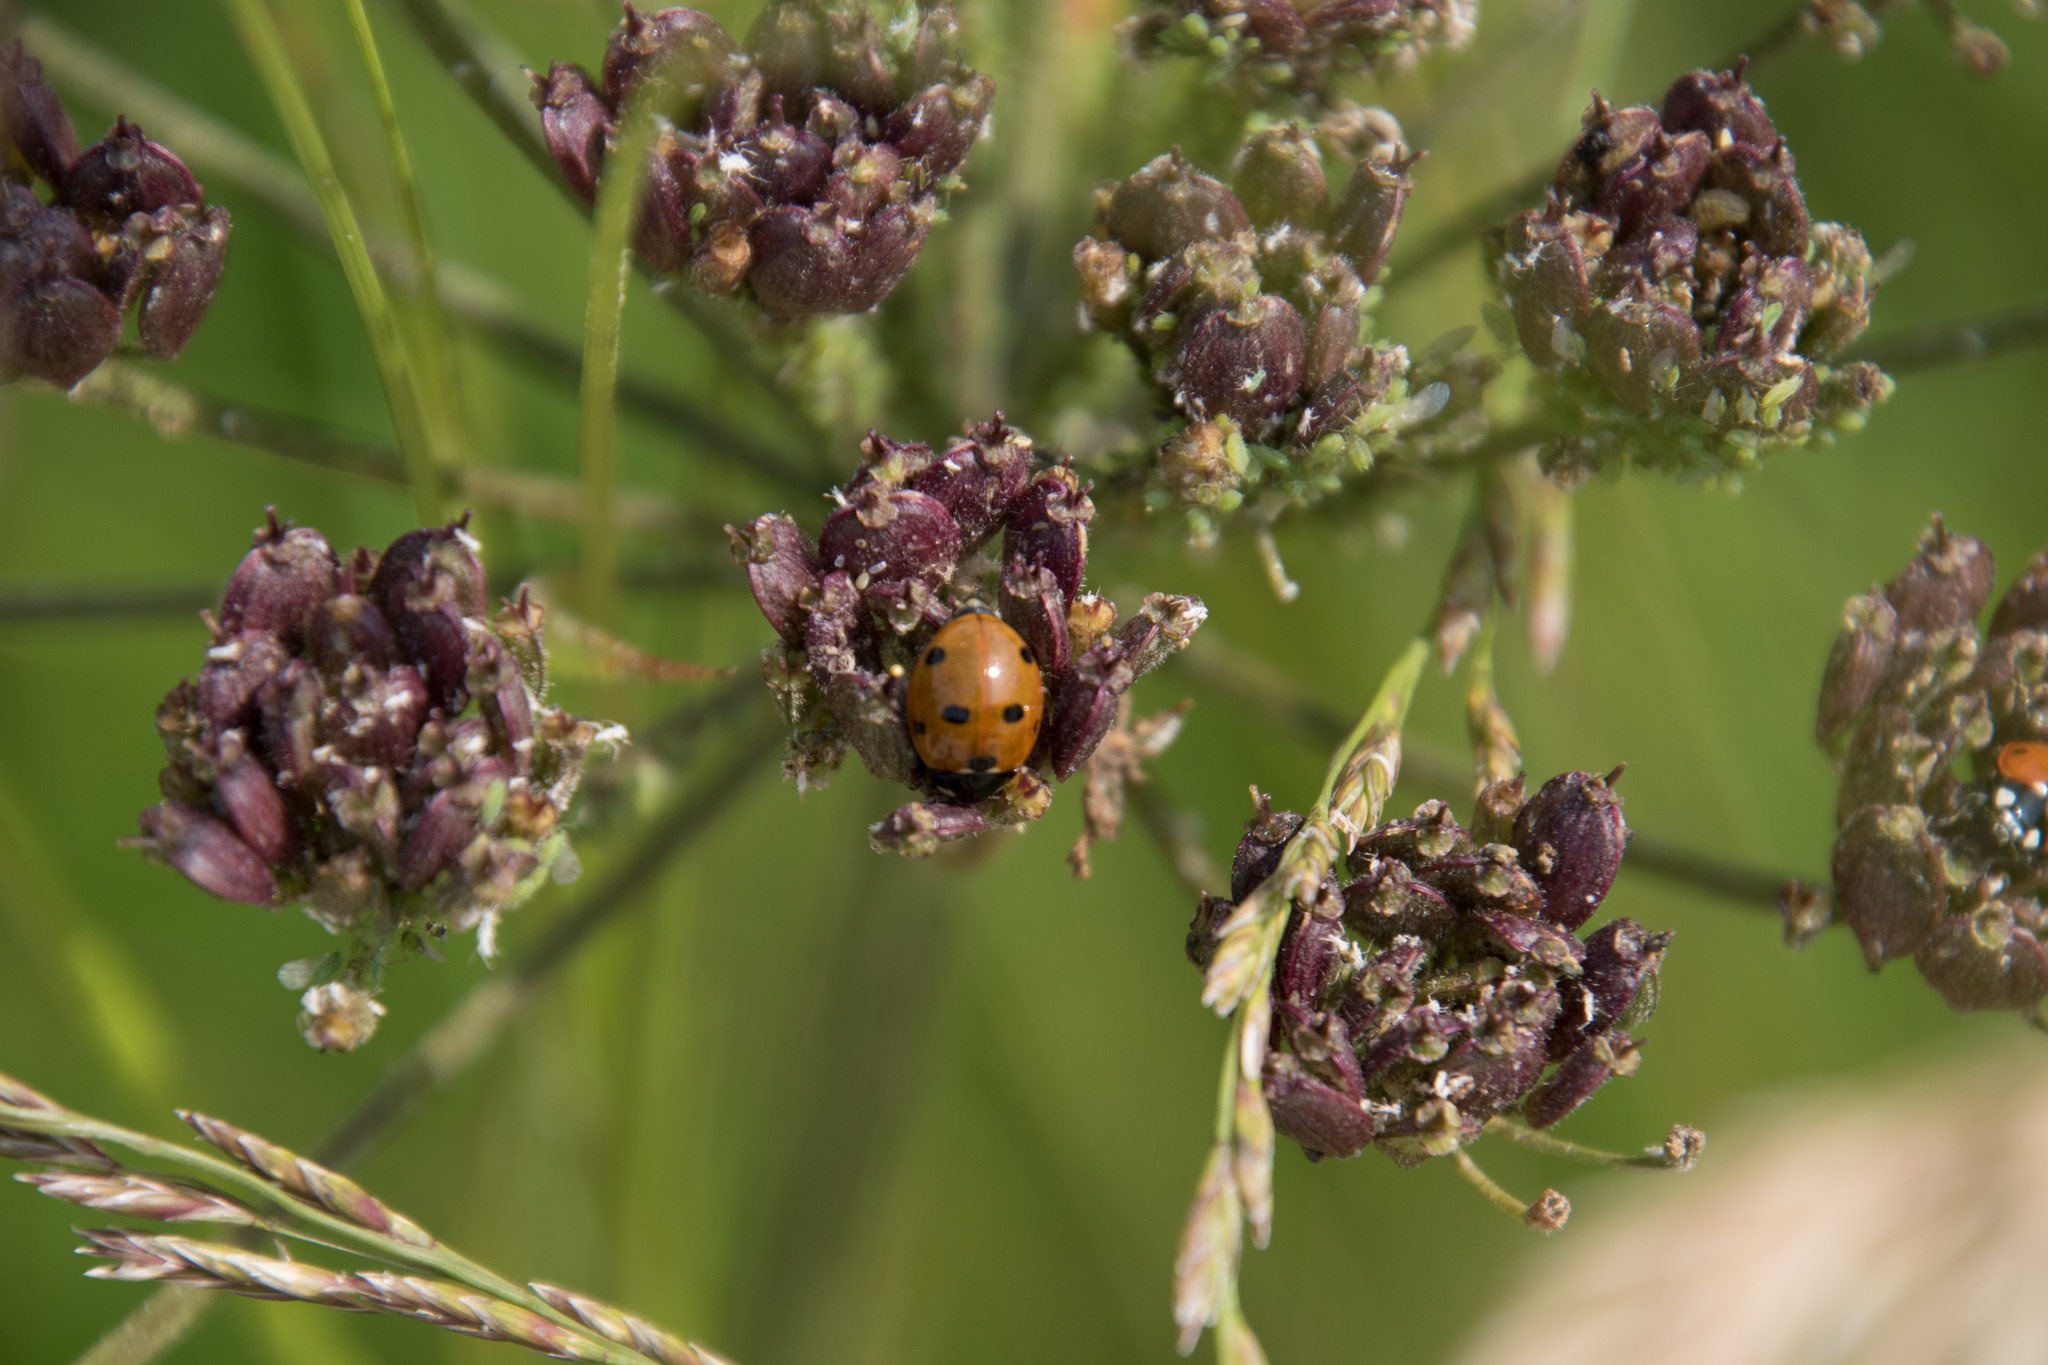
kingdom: Animalia
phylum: Arthropoda
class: Insecta
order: Coleoptera
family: Coccinellidae
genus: Coccinella
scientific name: Coccinella septempunctata
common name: Sevenspotted lady beetle
